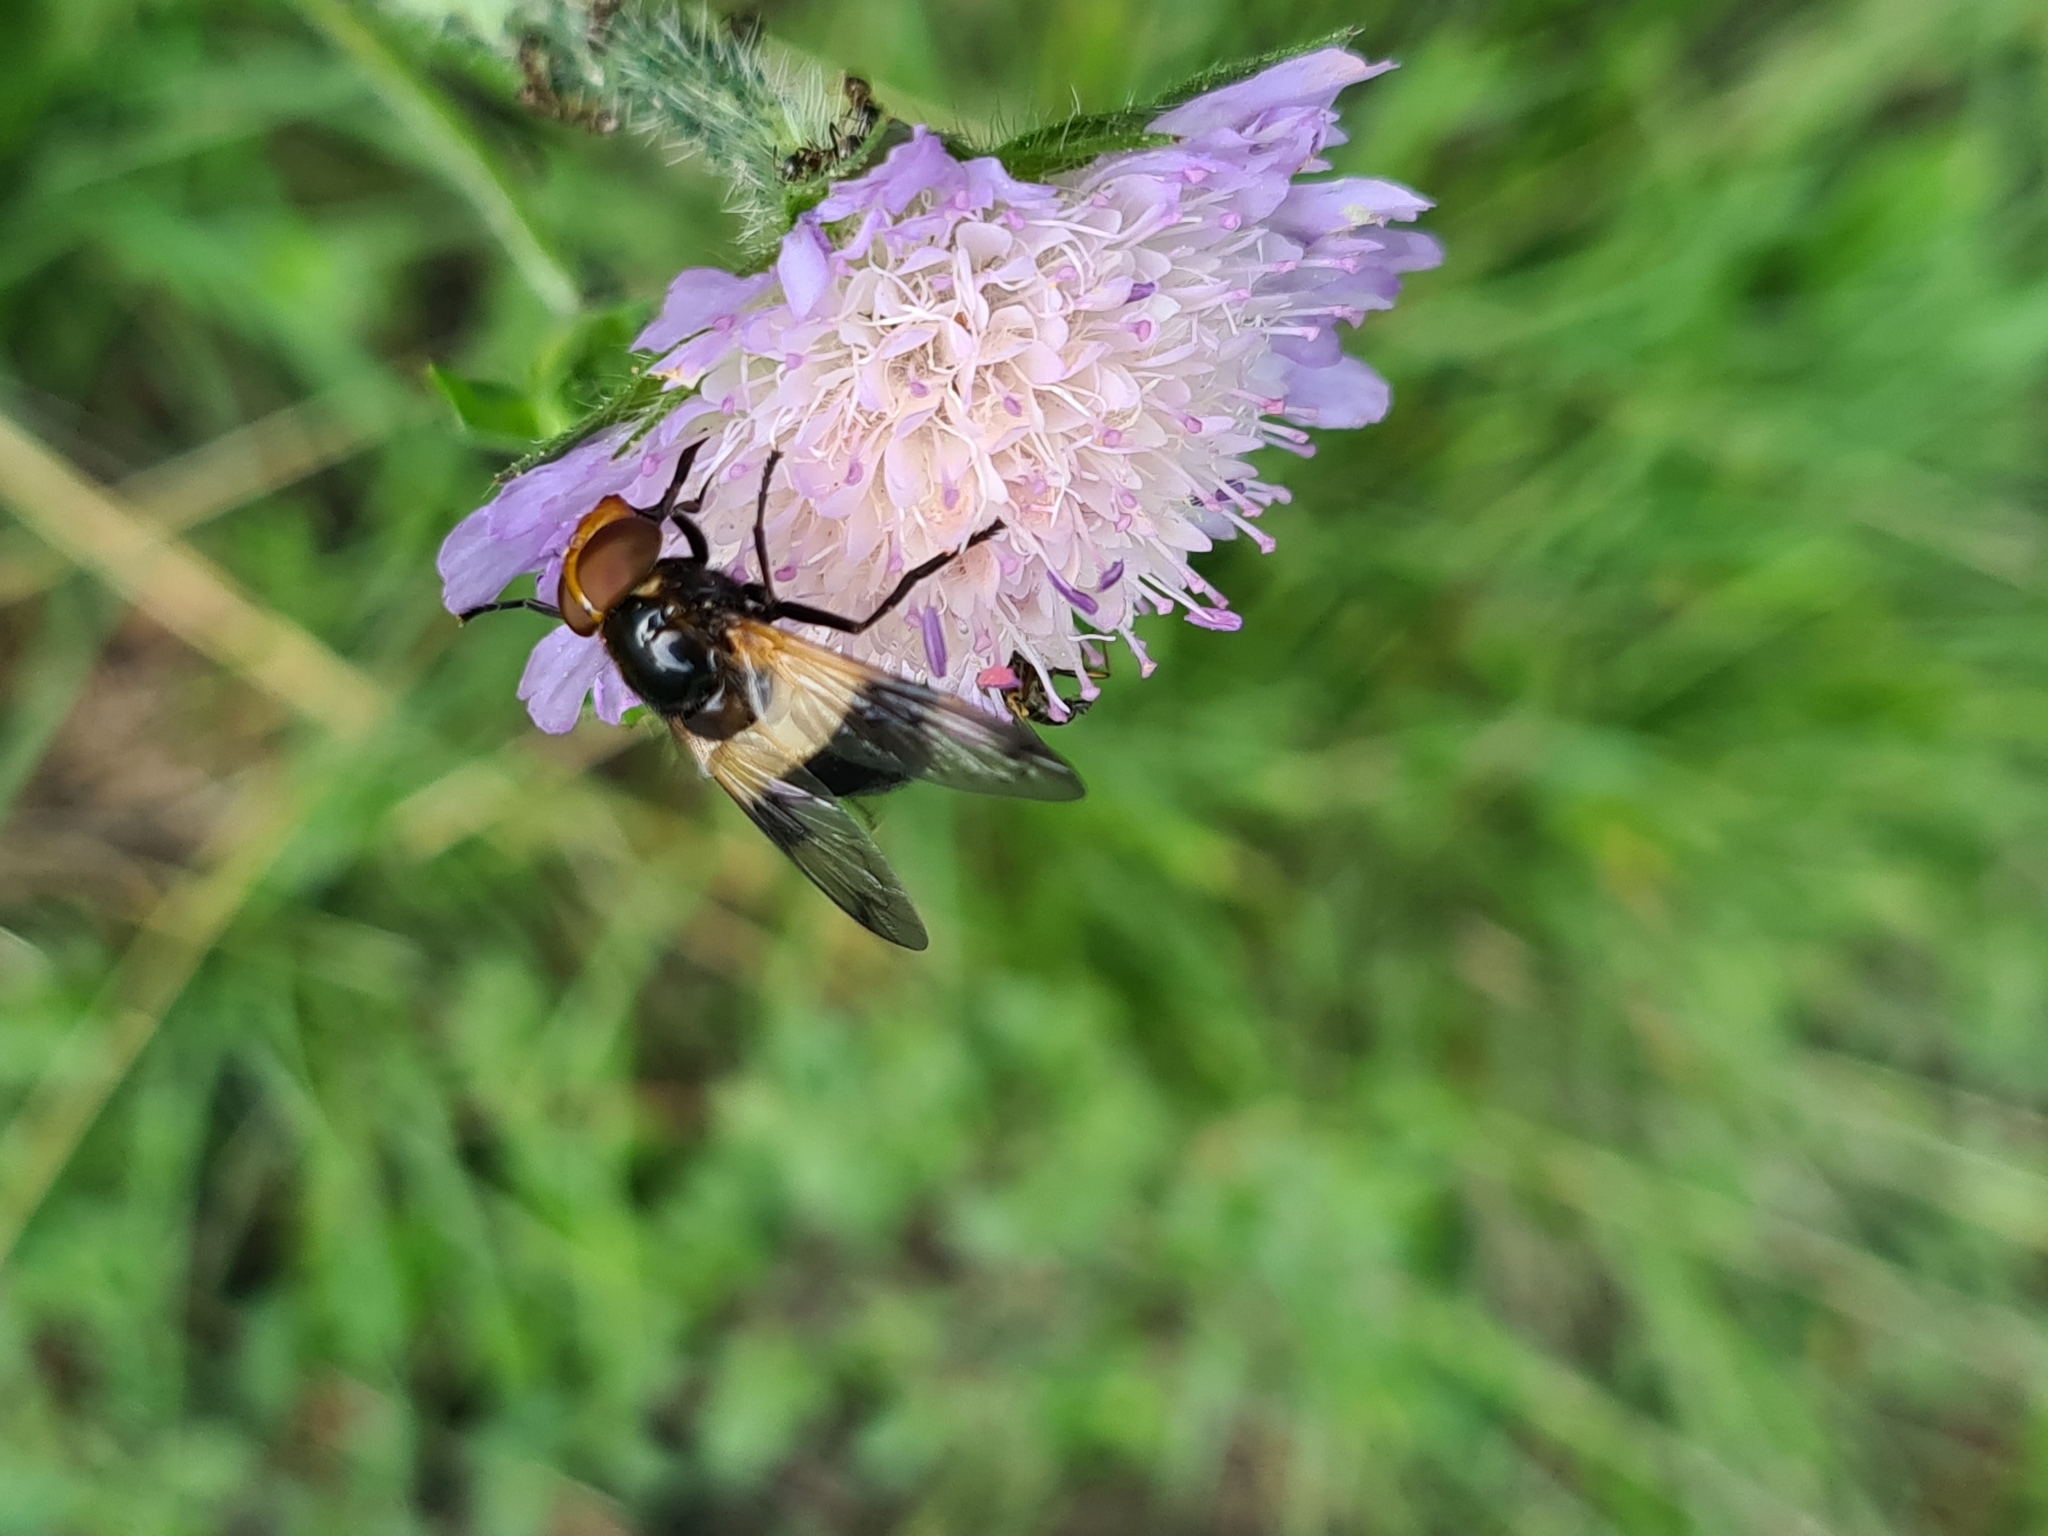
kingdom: Animalia
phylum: Arthropoda
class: Insecta
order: Diptera
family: Syrphidae
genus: Volucella
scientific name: Volucella pellucens
